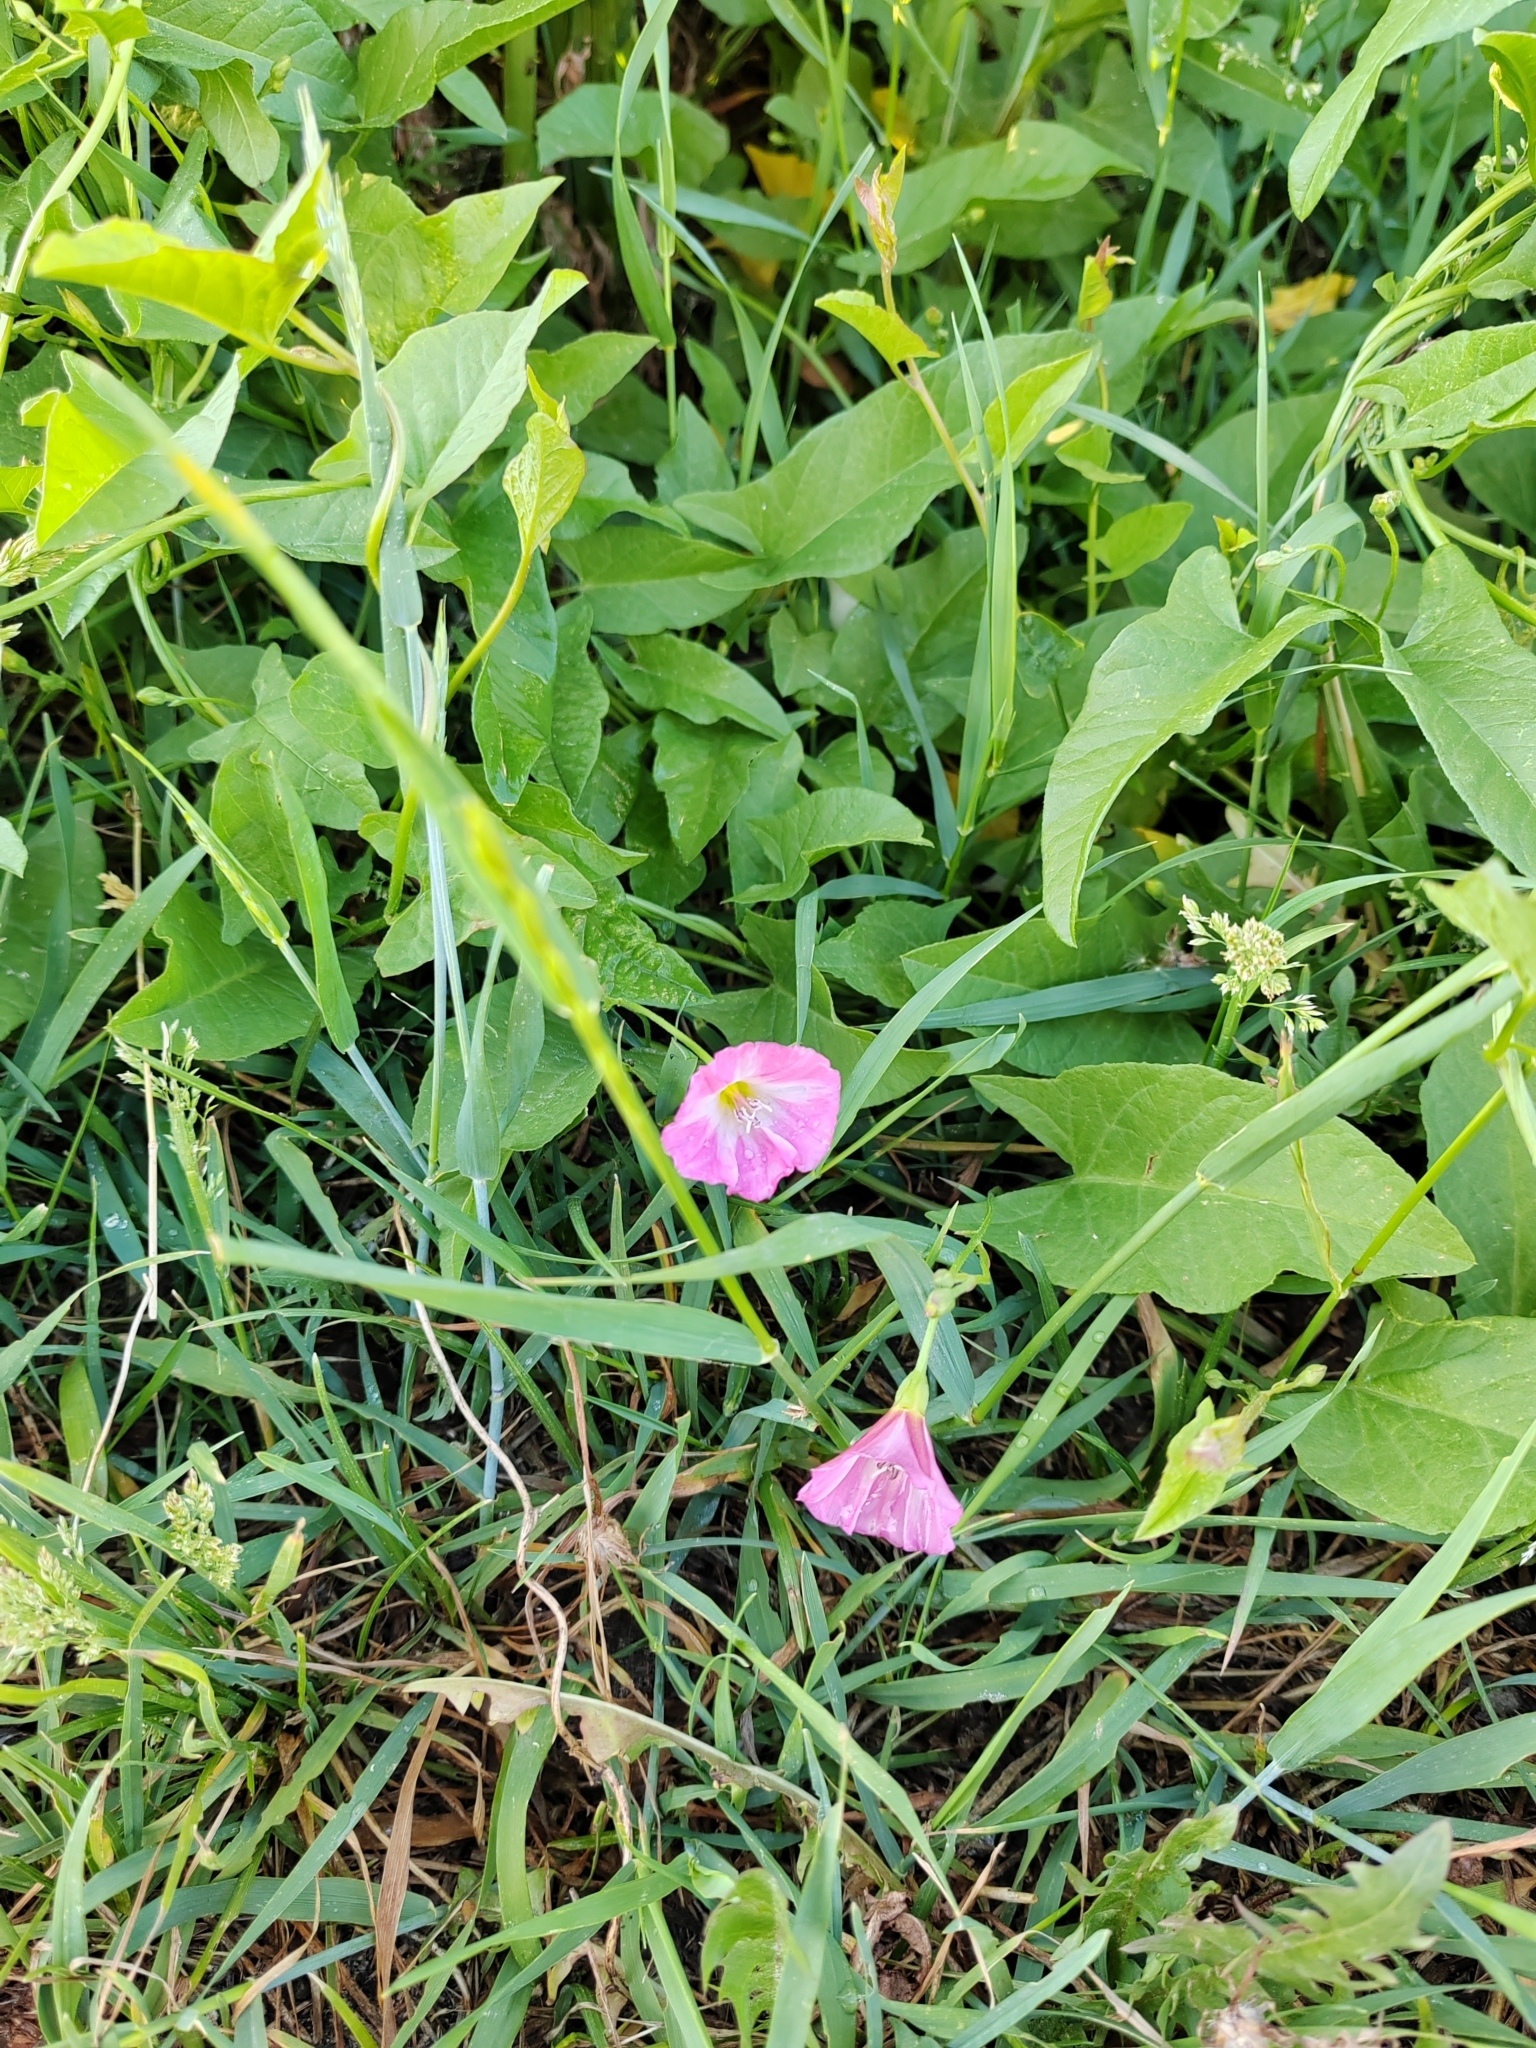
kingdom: Plantae
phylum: Tracheophyta
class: Magnoliopsida
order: Solanales
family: Convolvulaceae
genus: Convolvulus
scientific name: Convolvulus arvensis
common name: Field bindweed
